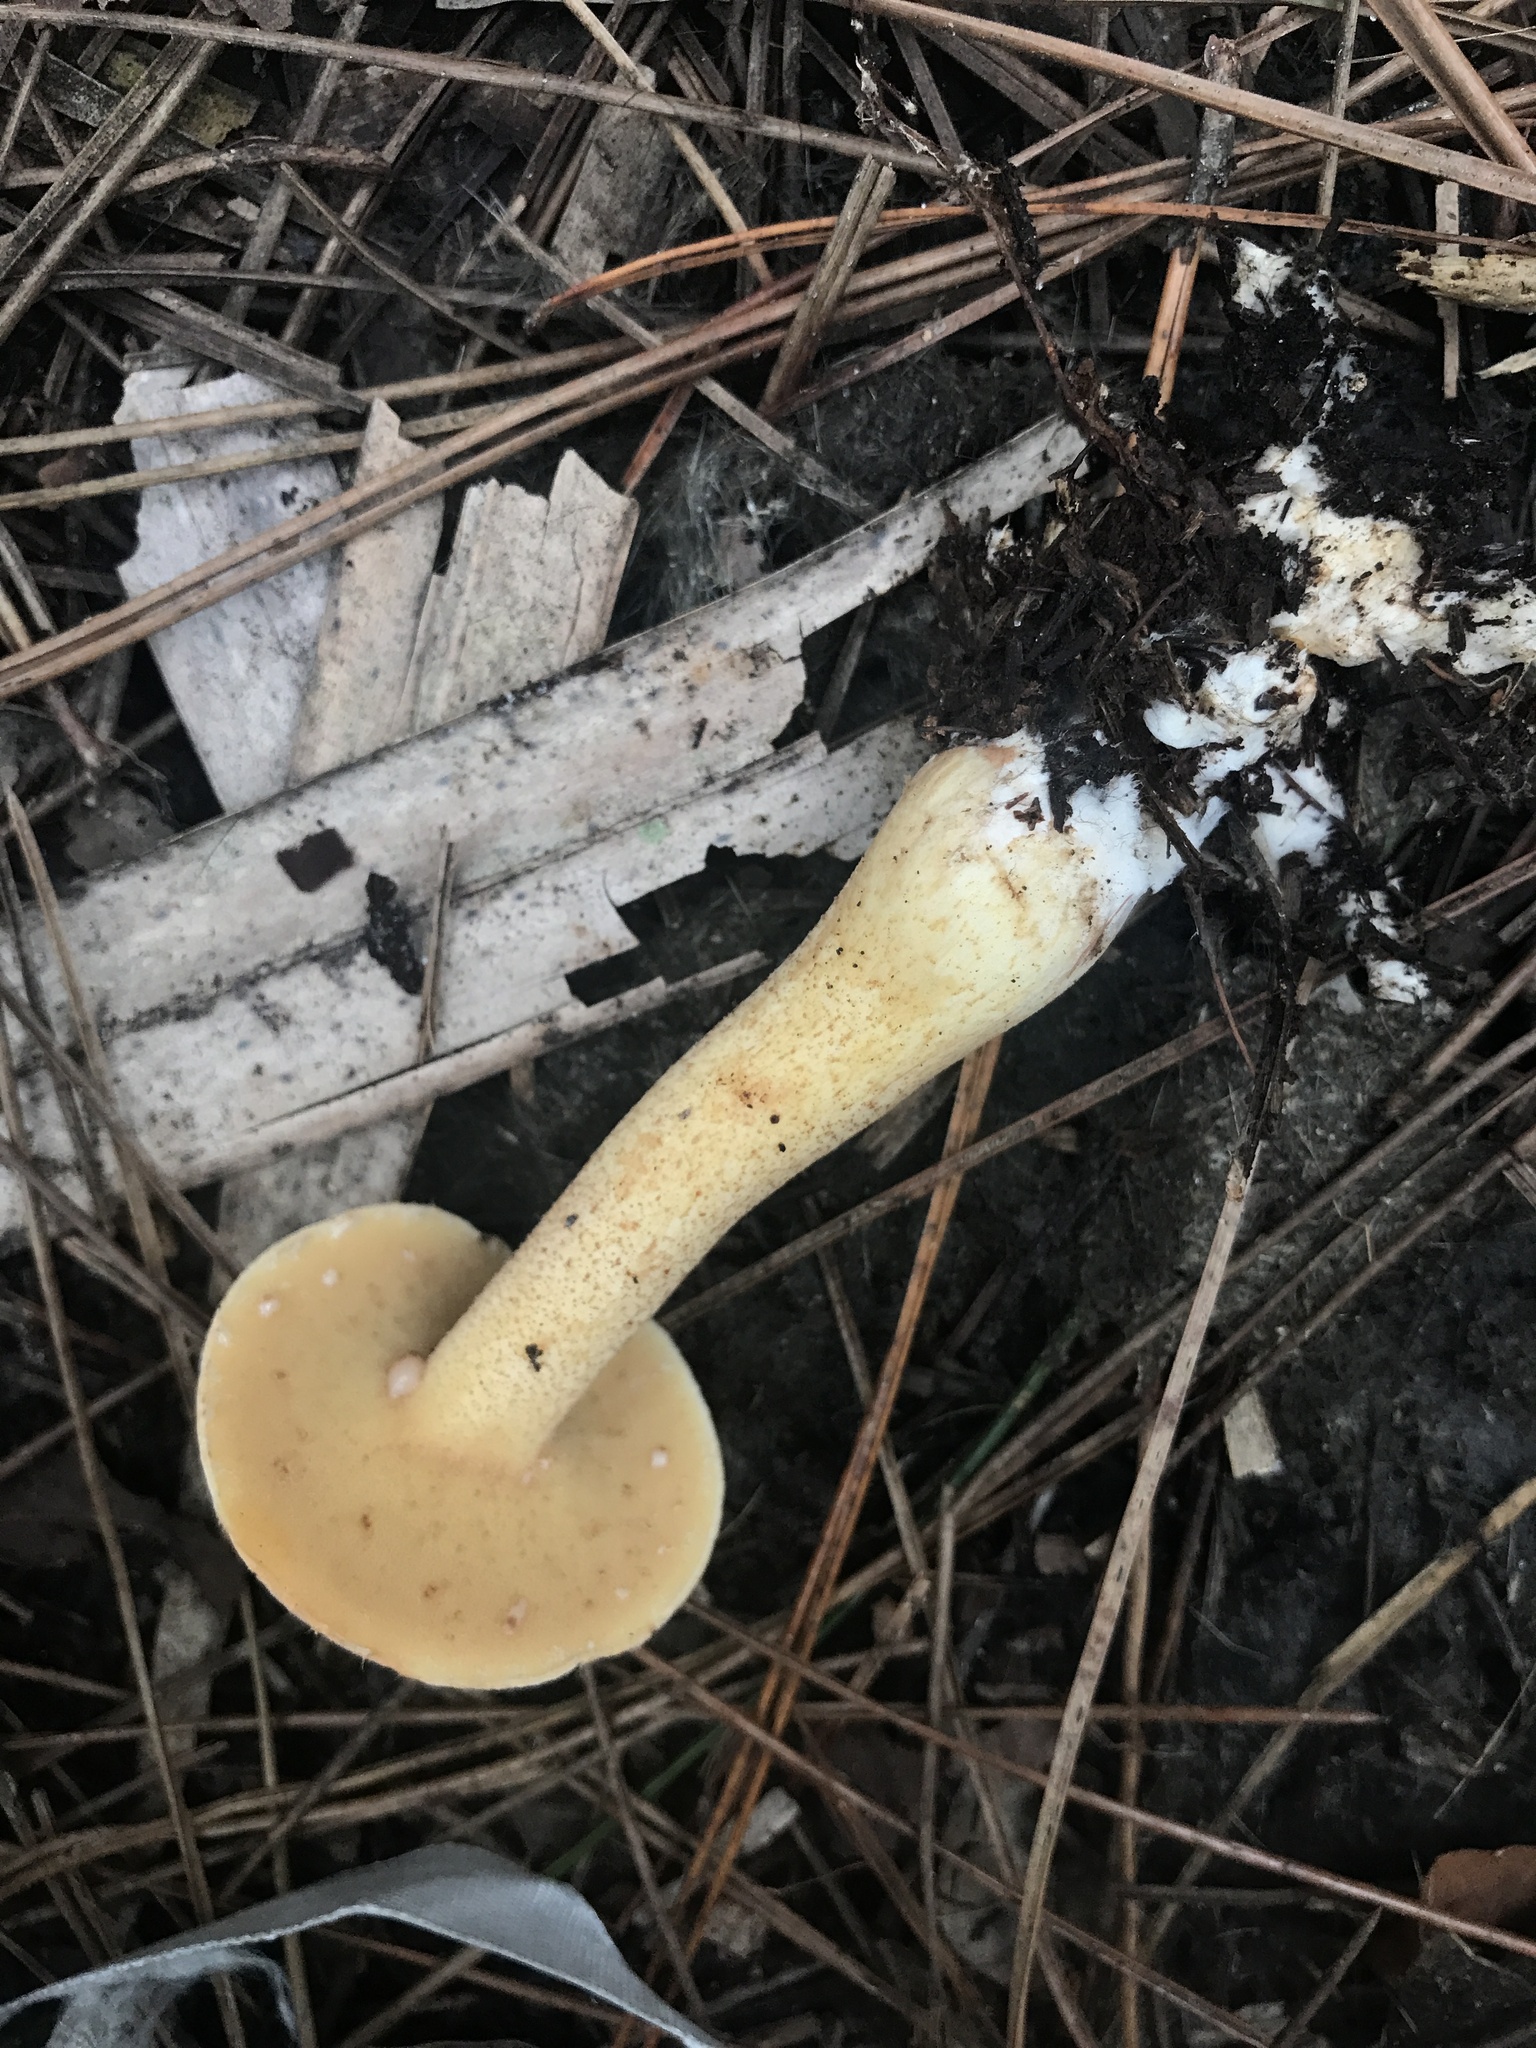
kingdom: Fungi
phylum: Basidiomycota
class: Agaricomycetes
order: Boletales
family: Suillaceae
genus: Suillus
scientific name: Suillus hirtellus
